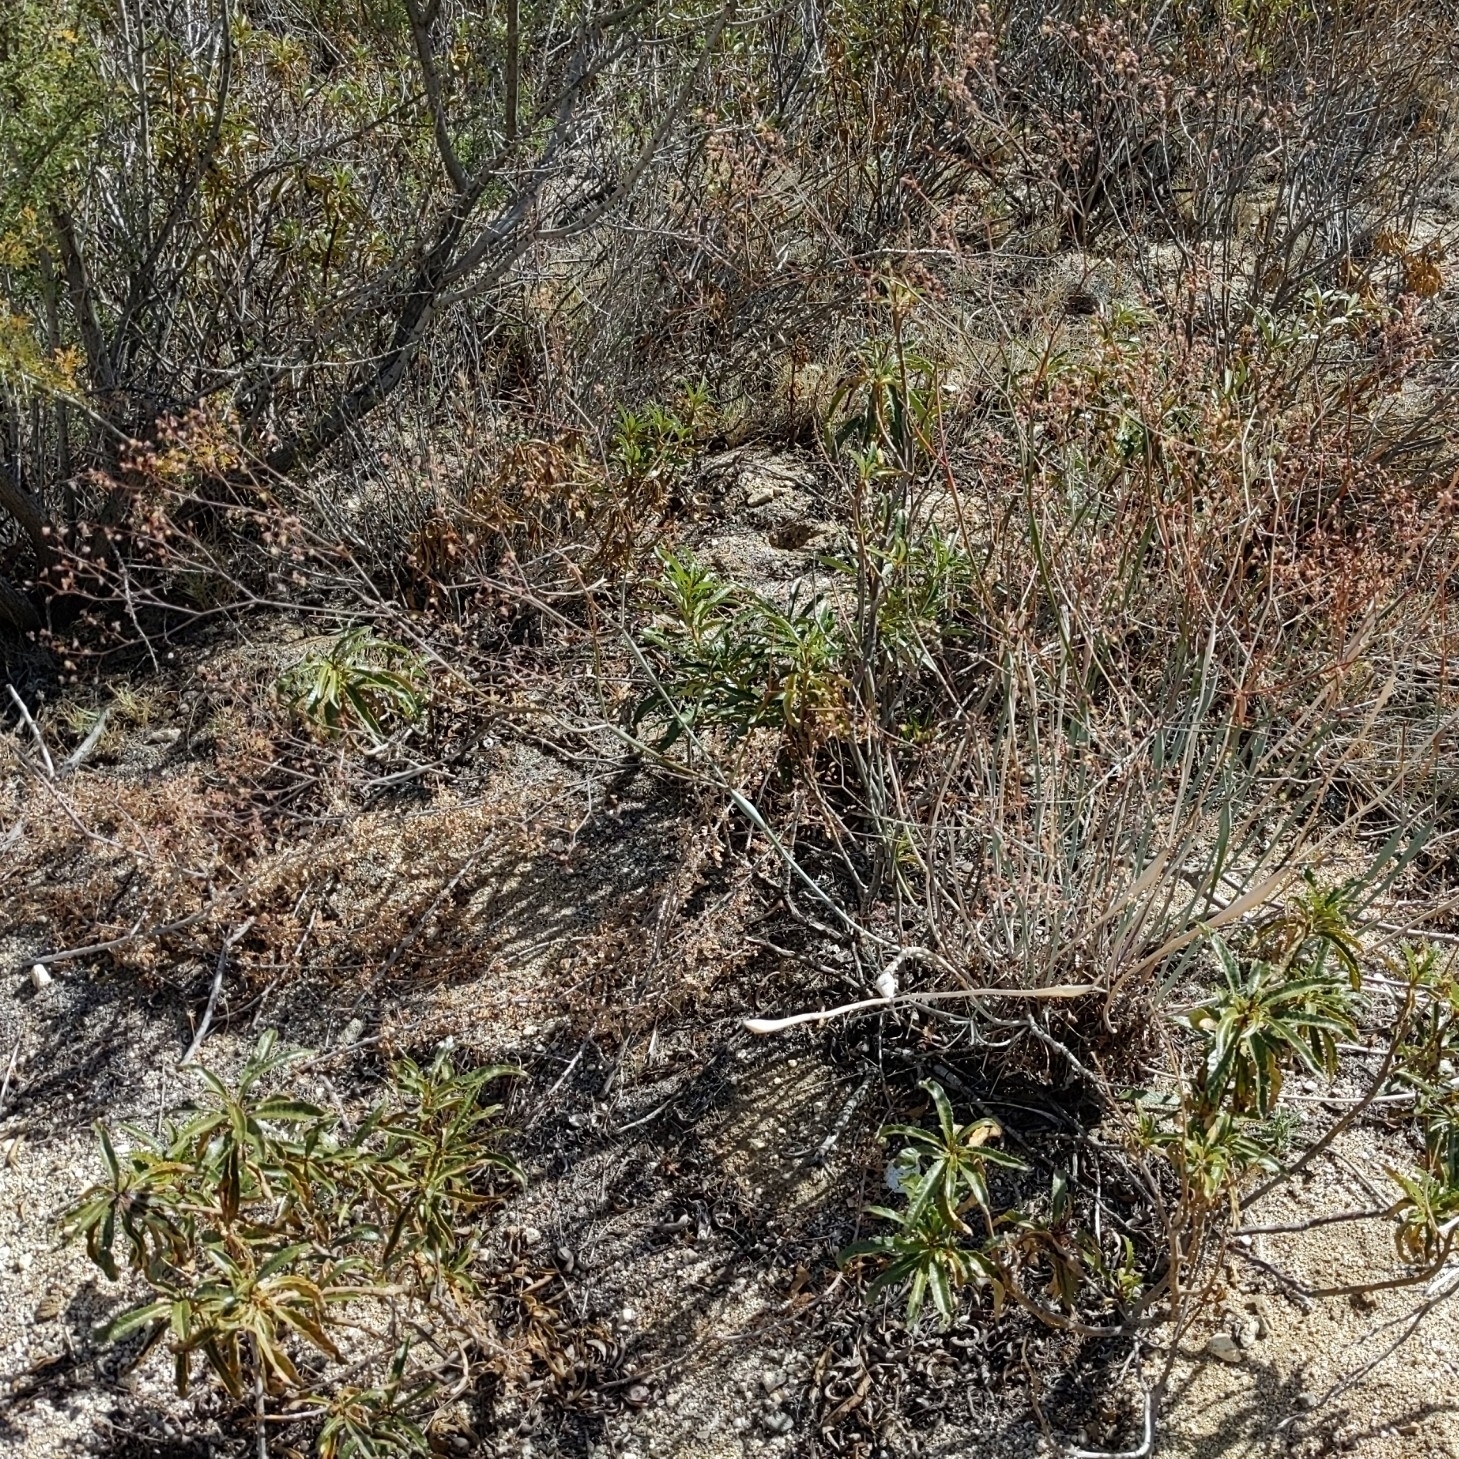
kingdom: Plantae
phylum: Tracheophyta
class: Magnoliopsida
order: Caryophyllales
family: Polygonaceae
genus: Eriogonum
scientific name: Eriogonum inflatum
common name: Desert trumpet
